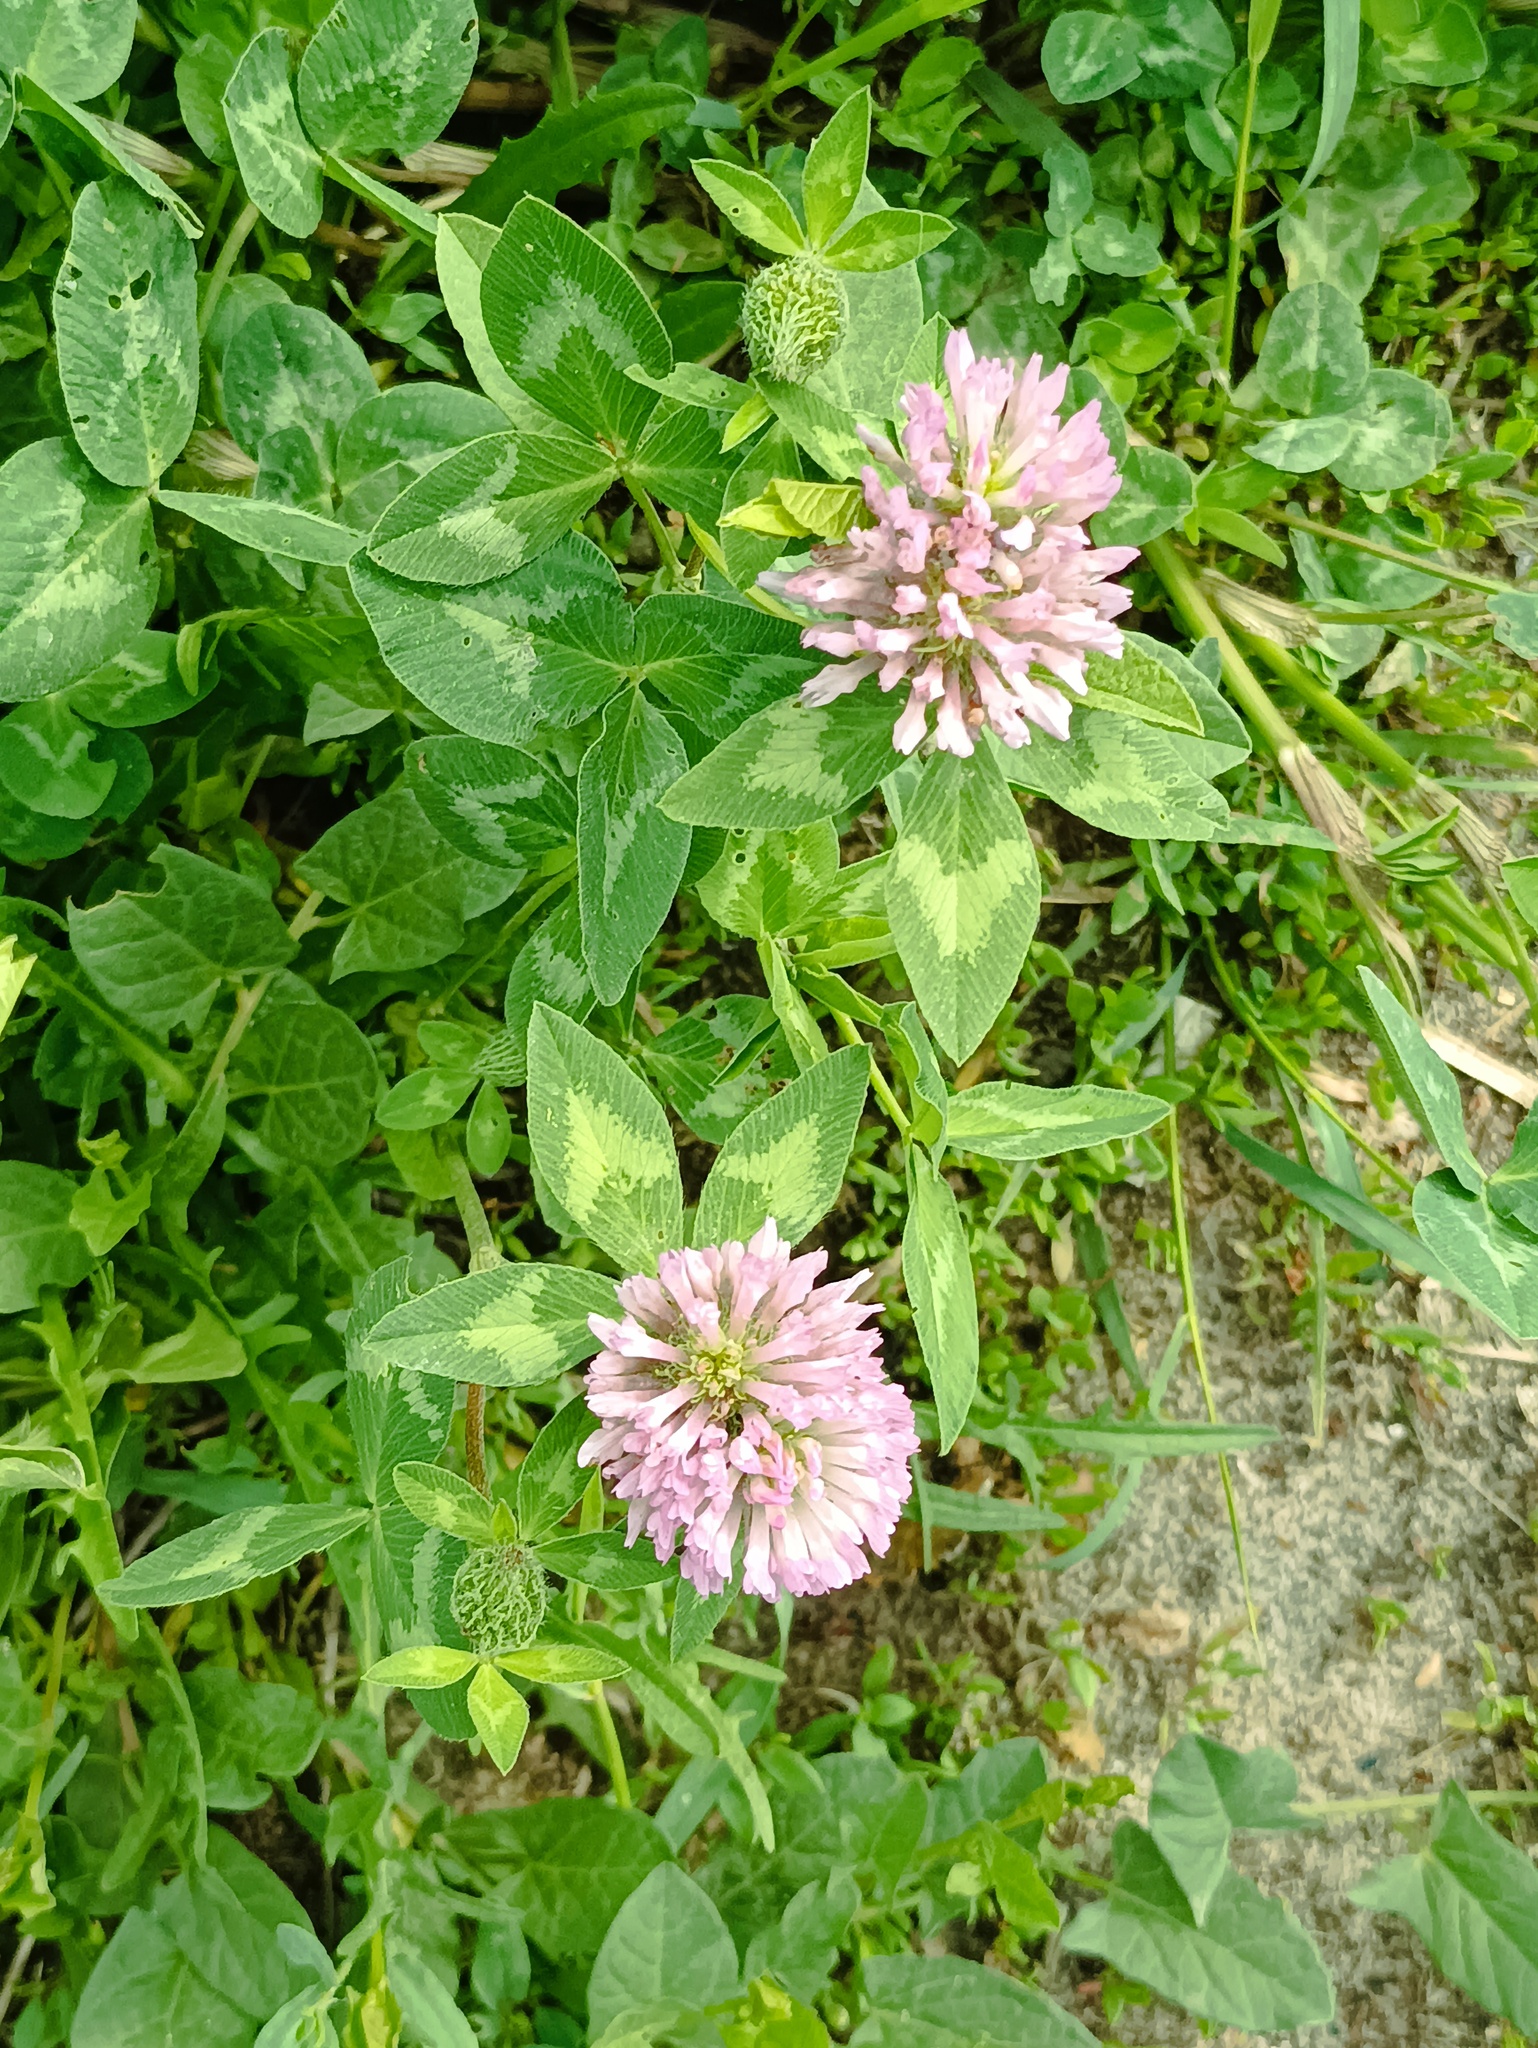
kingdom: Plantae
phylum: Tracheophyta
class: Magnoliopsida
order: Fabales
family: Fabaceae
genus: Trifolium
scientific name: Trifolium pratense
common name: Red clover
